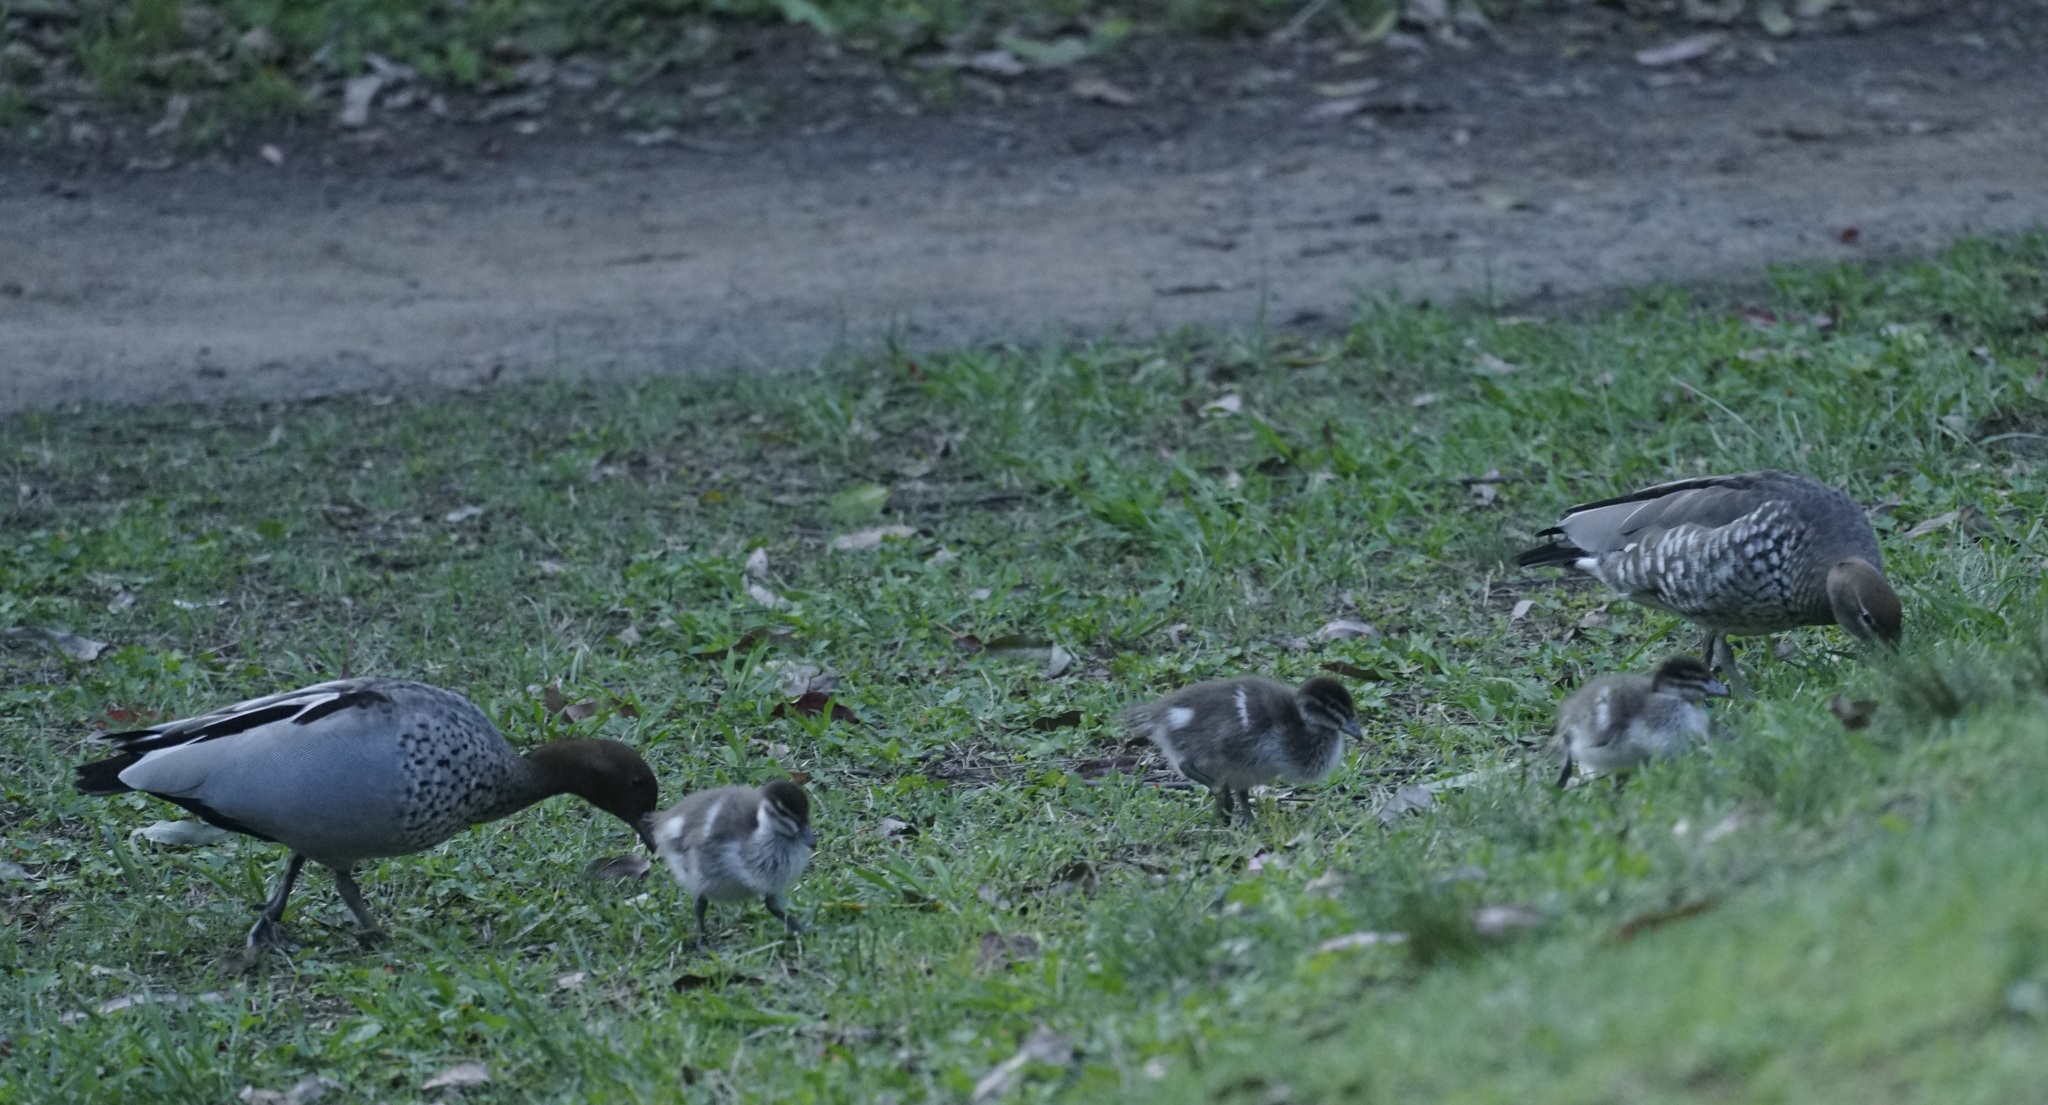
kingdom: Animalia
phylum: Chordata
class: Aves
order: Anseriformes
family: Anatidae
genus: Chenonetta
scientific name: Chenonetta jubata
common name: Maned duck
